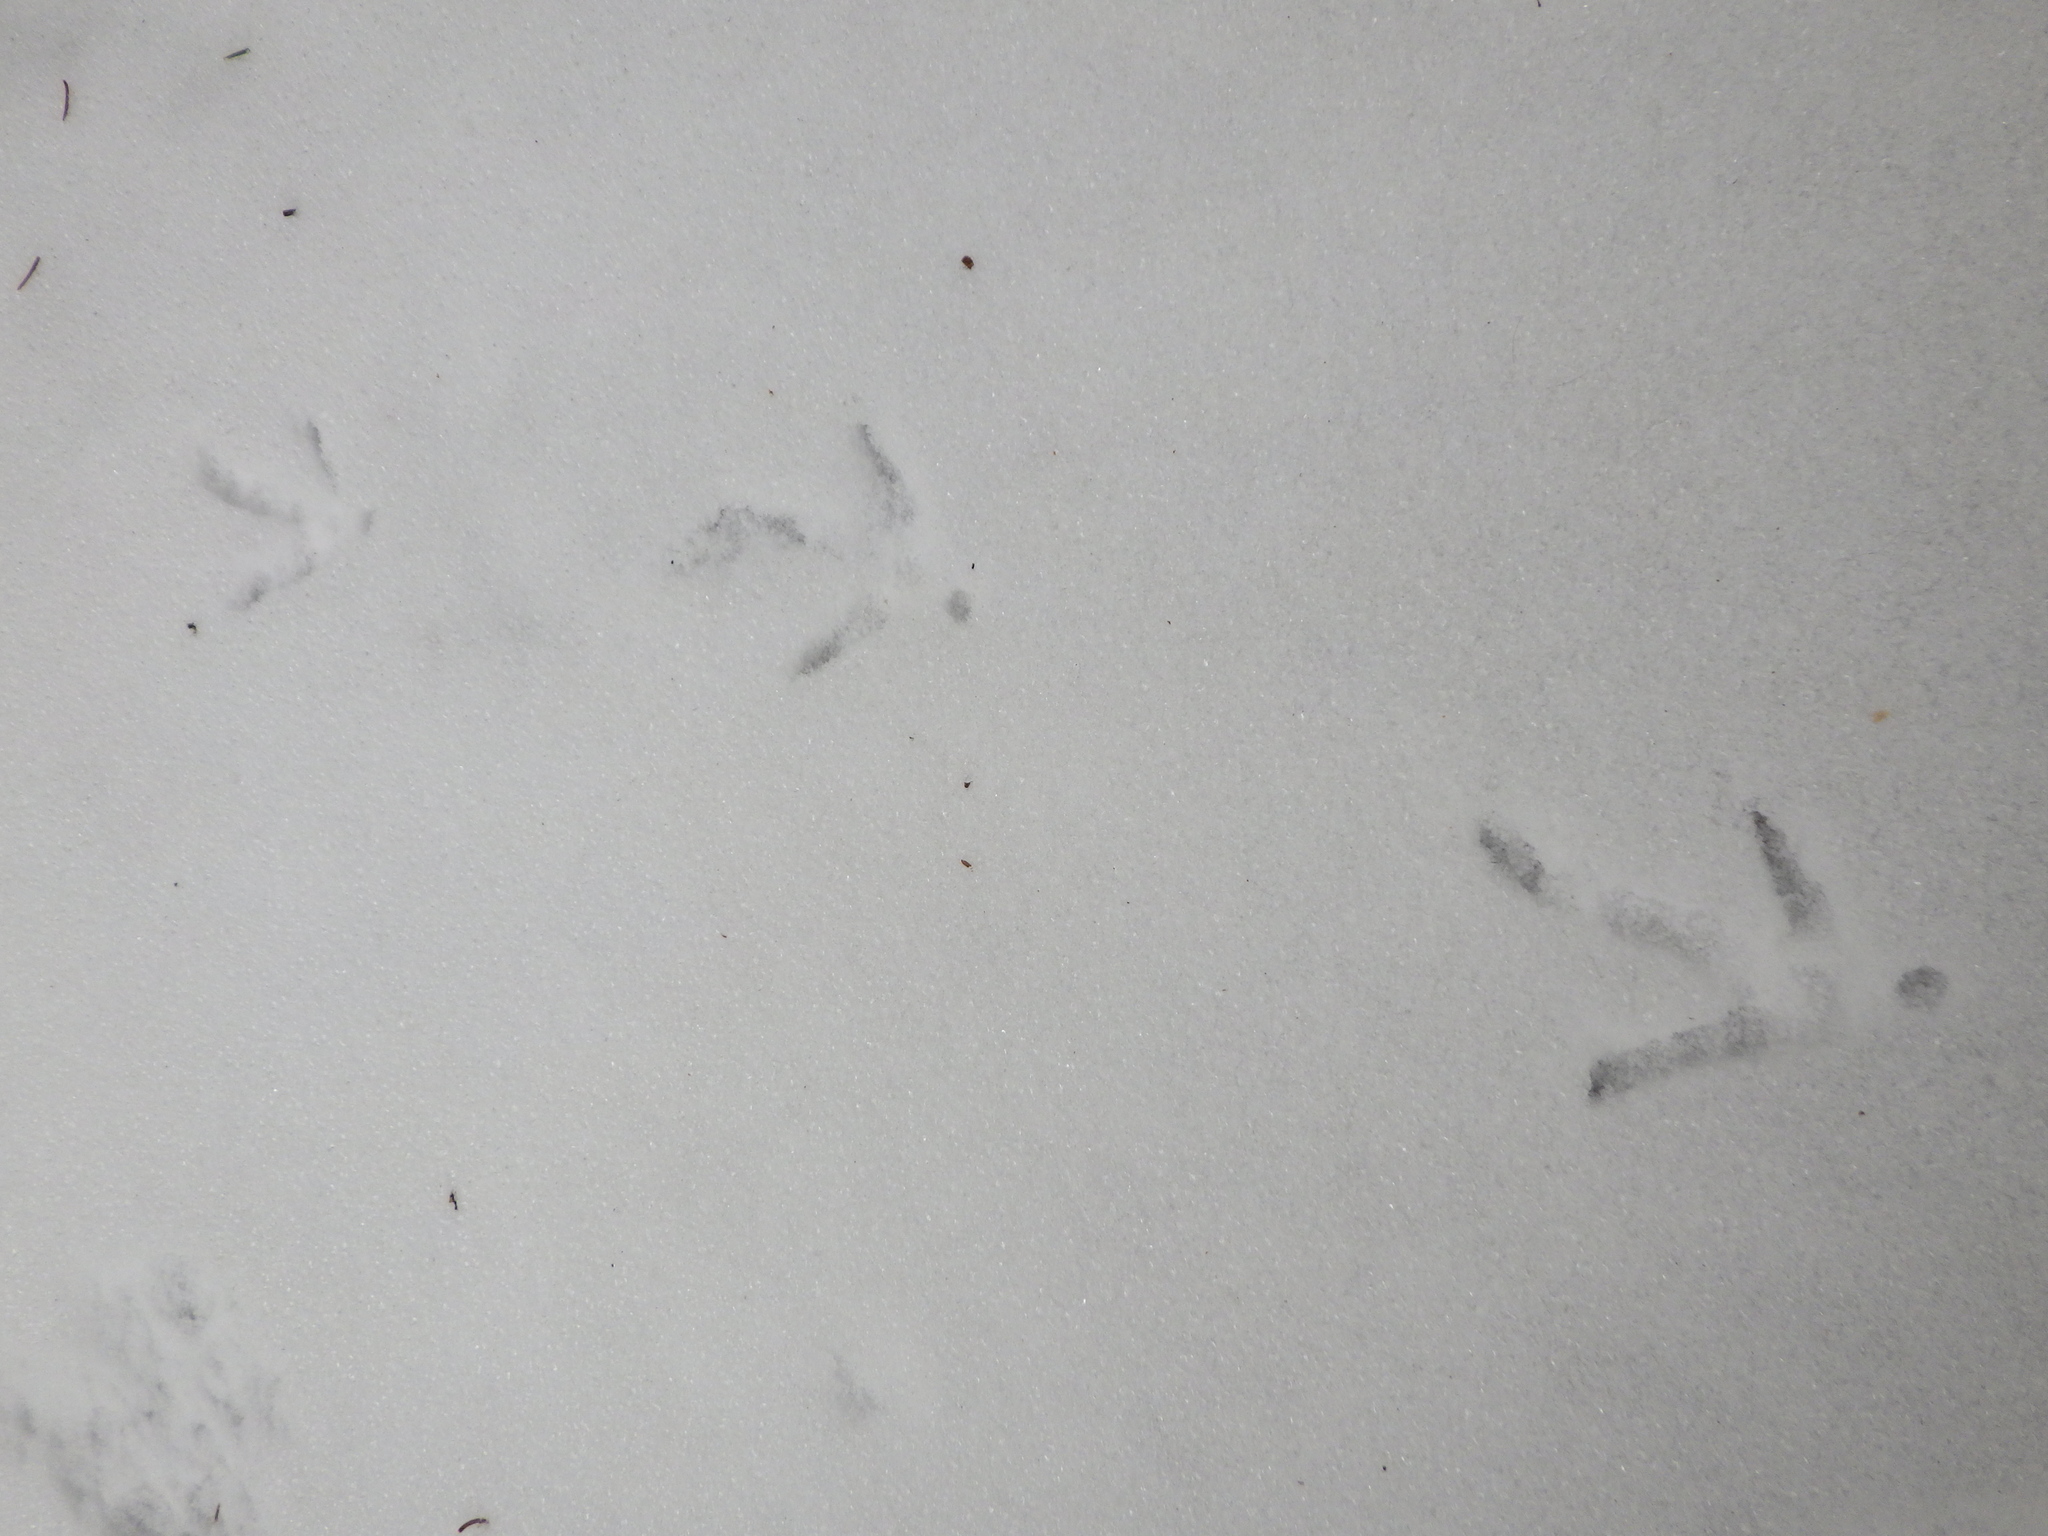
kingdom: Animalia
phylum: Chordata
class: Aves
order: Passeriformes
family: Corvidae
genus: Corvus
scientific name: Corvus brachyrhynchos
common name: American crow
